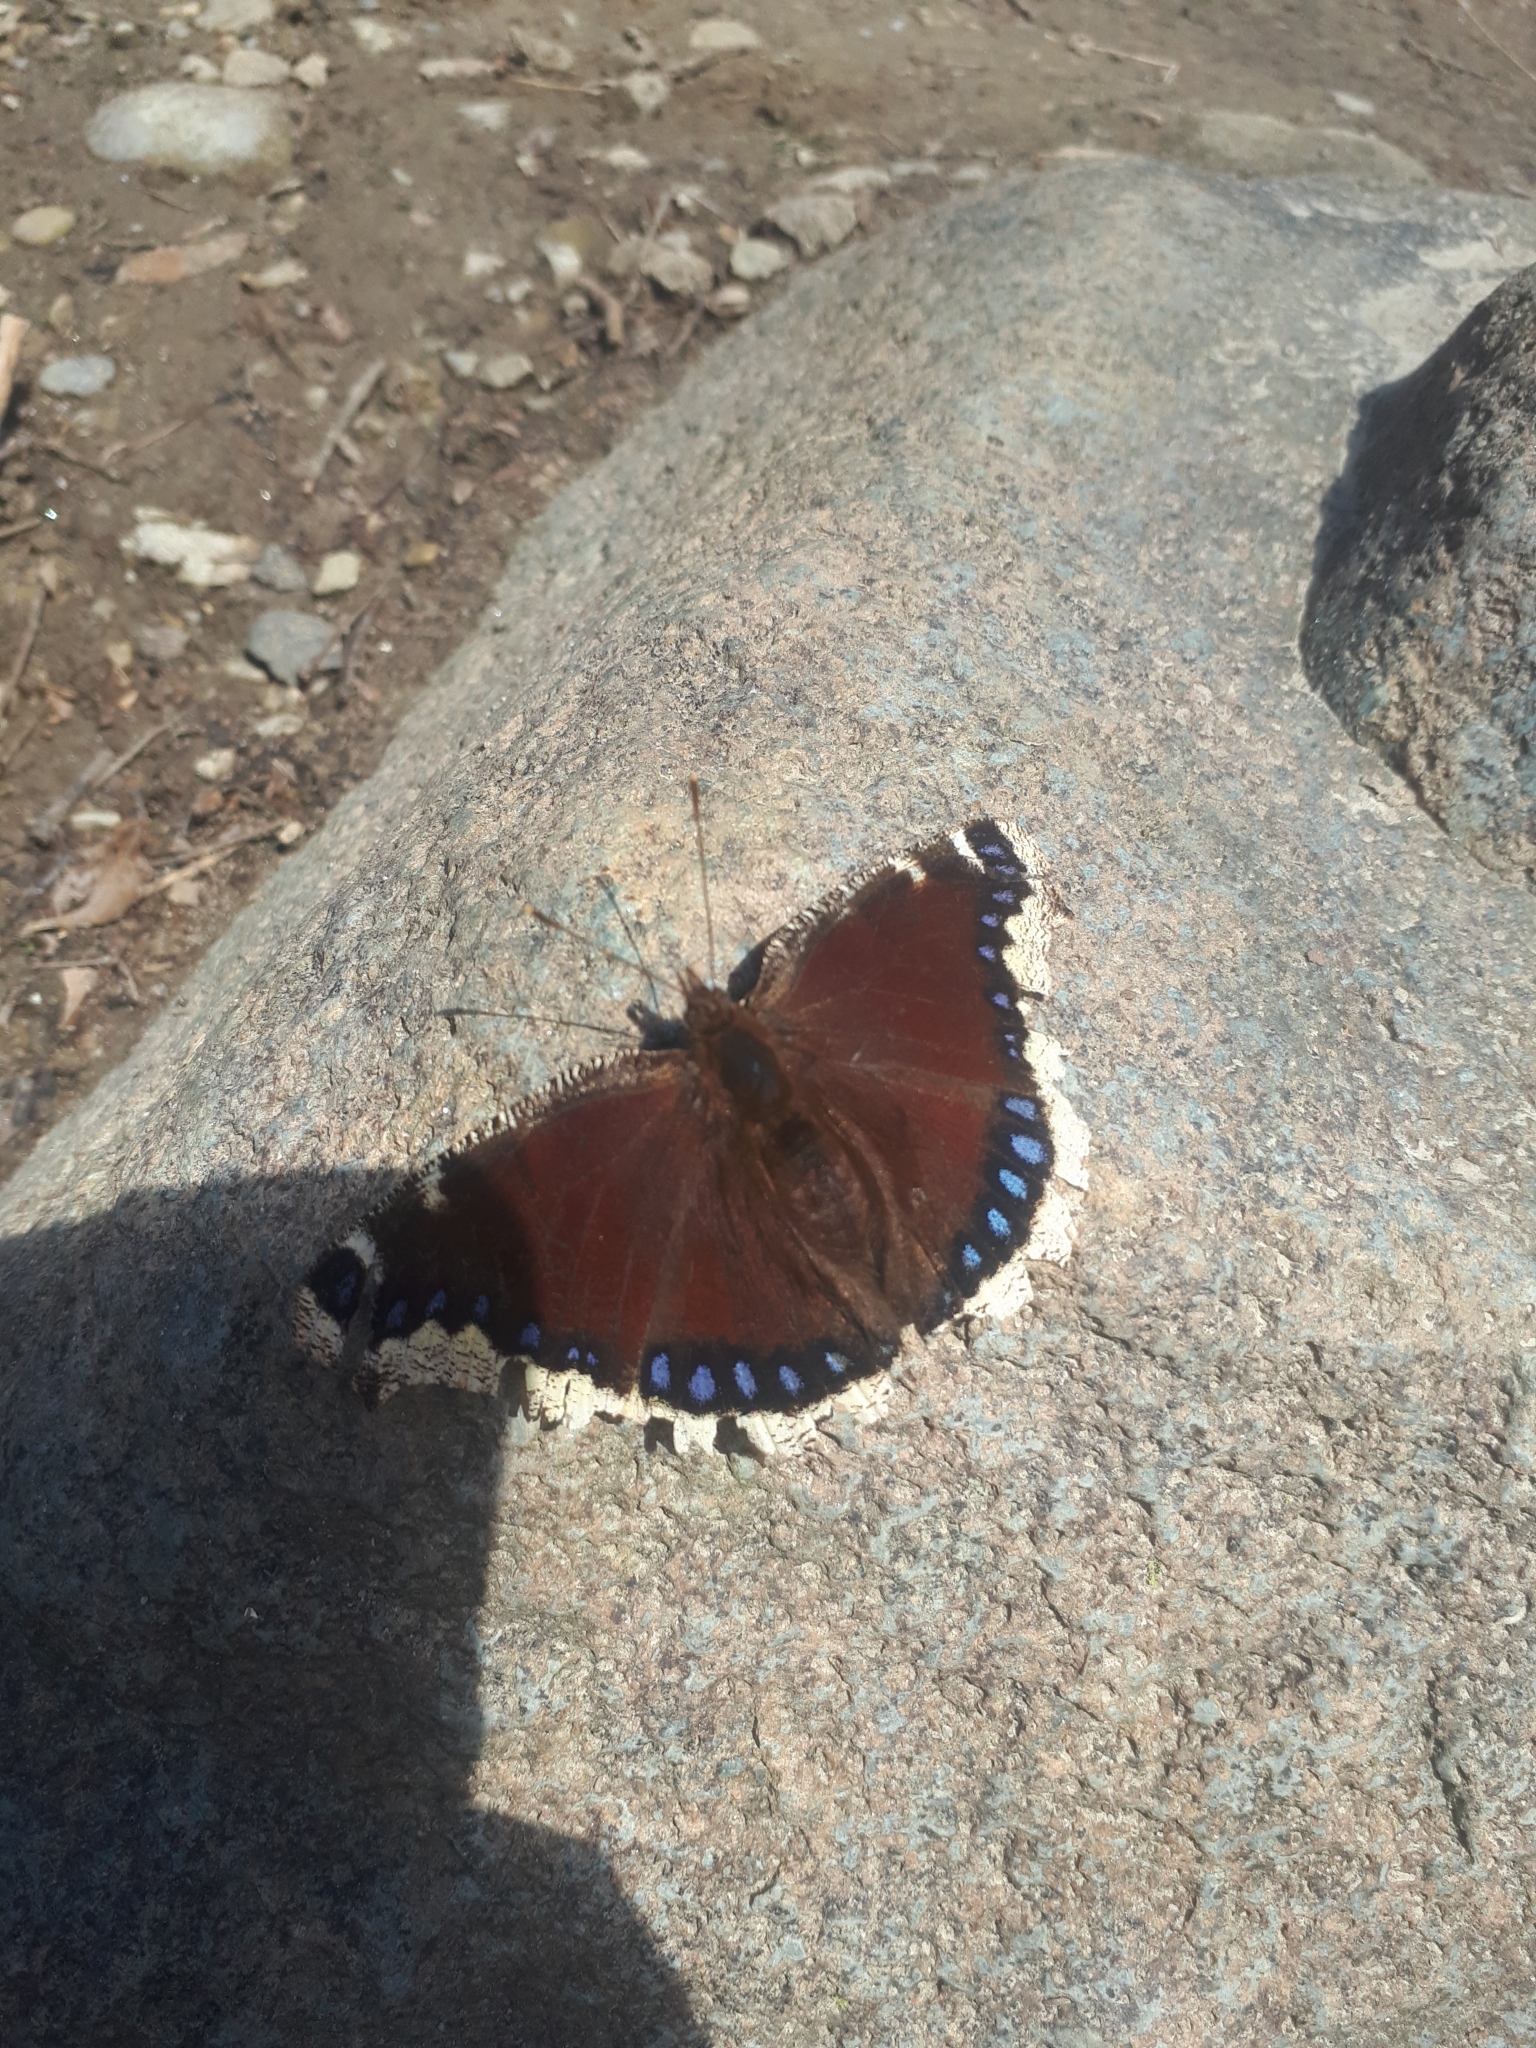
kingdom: Animalia
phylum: Arthropoda
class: Insecta
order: Lepidoptera
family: Nymphalidae
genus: Nymphalis
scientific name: Nymphalis antiopa
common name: Camberwell beauty
